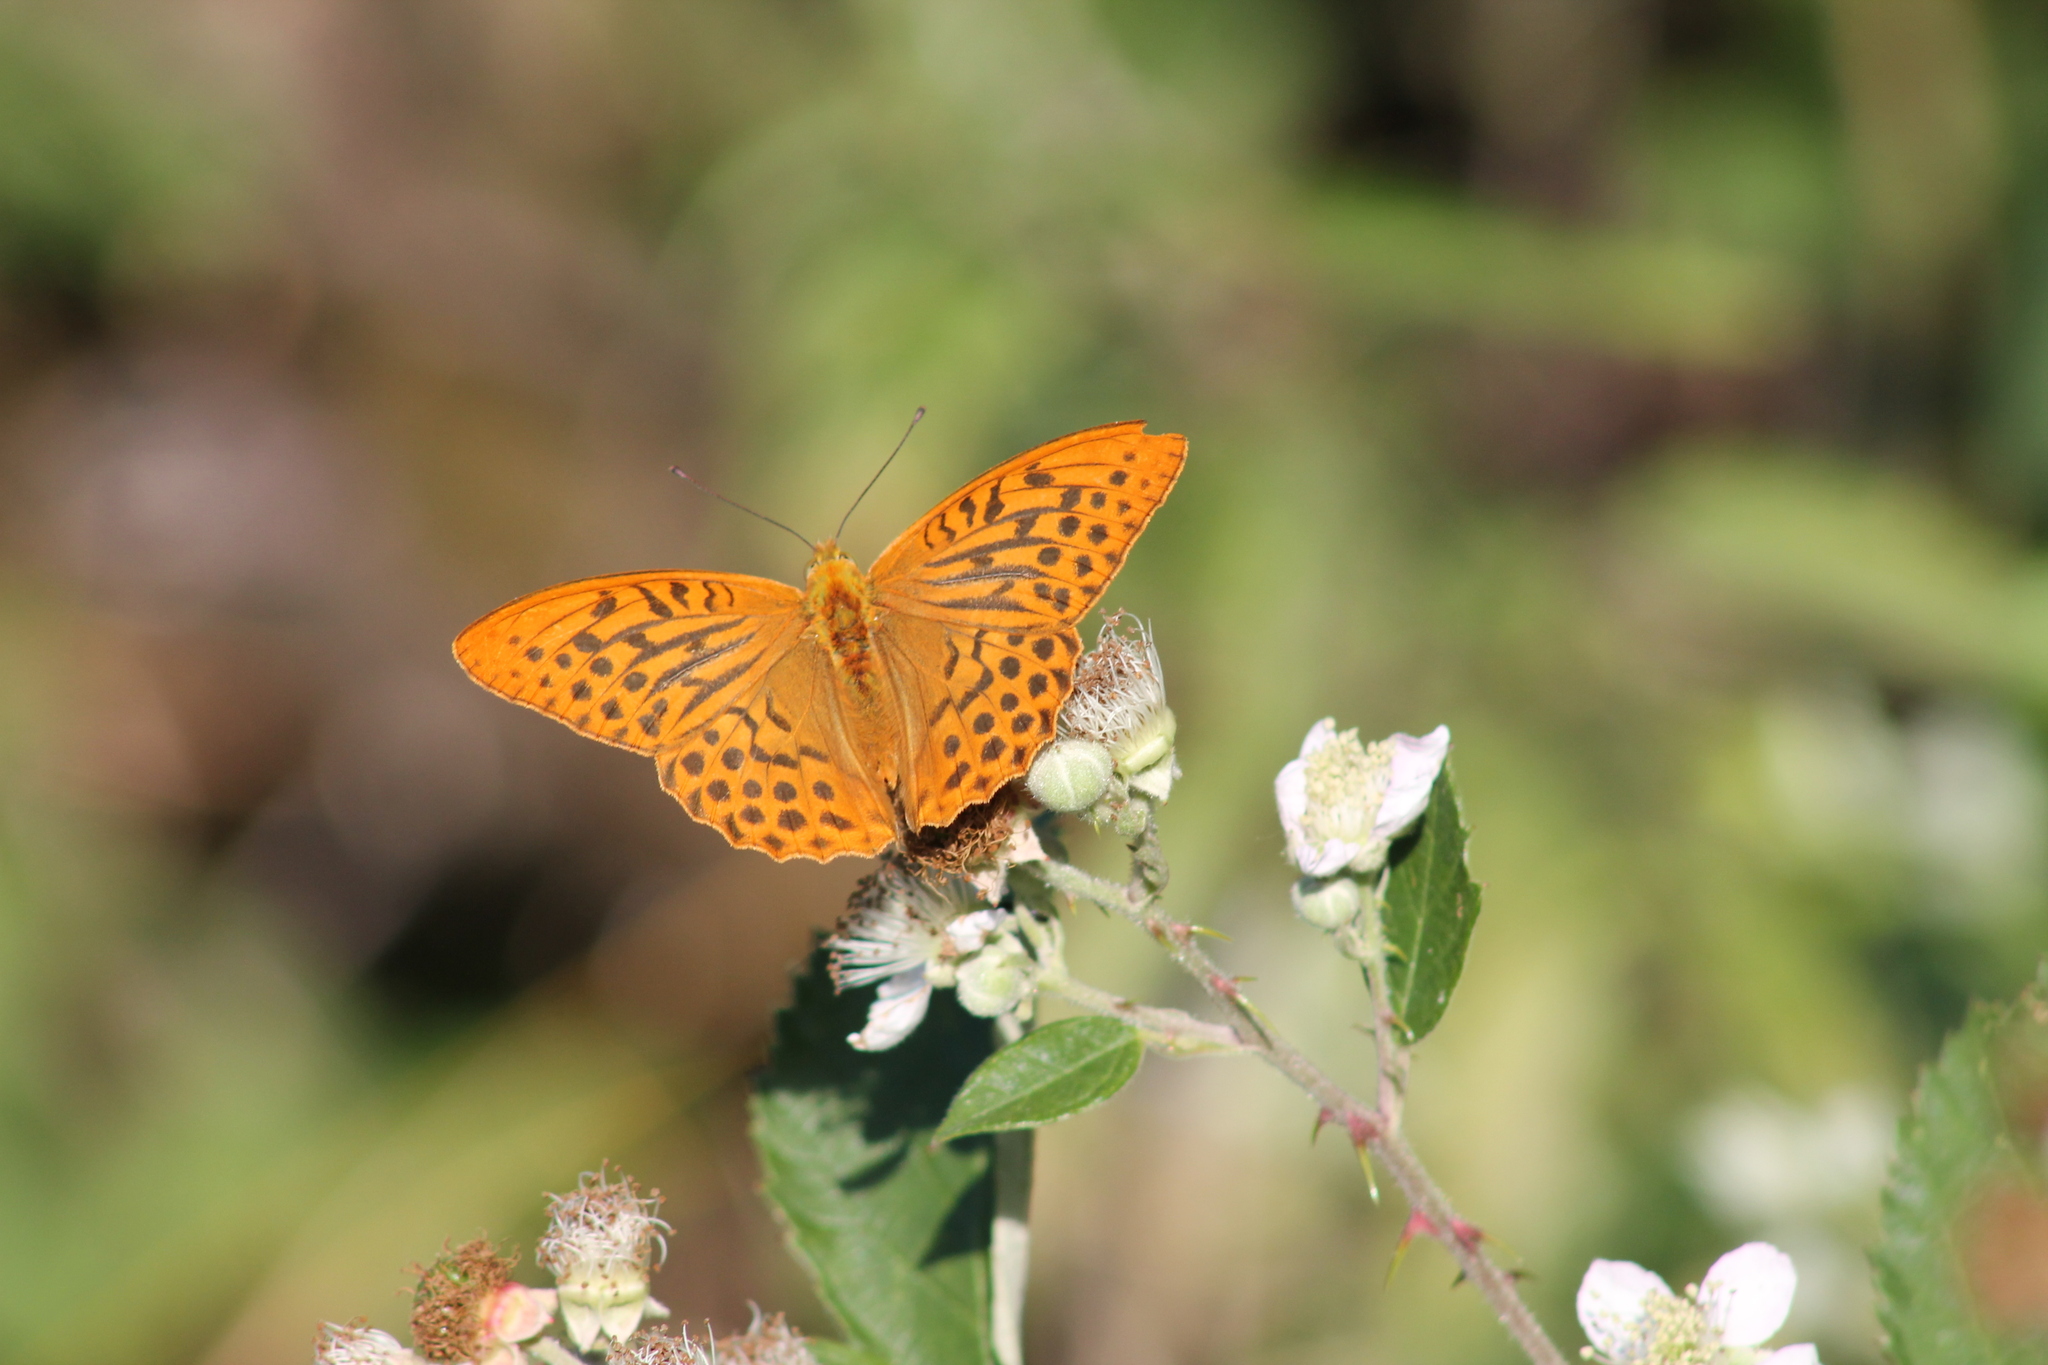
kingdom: Animalia
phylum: Arthropoda
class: Insecta
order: Lepidoptera
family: Nymphalidae
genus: Argynnis
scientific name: Argynnis paphia
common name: Silver-washed fritillary
